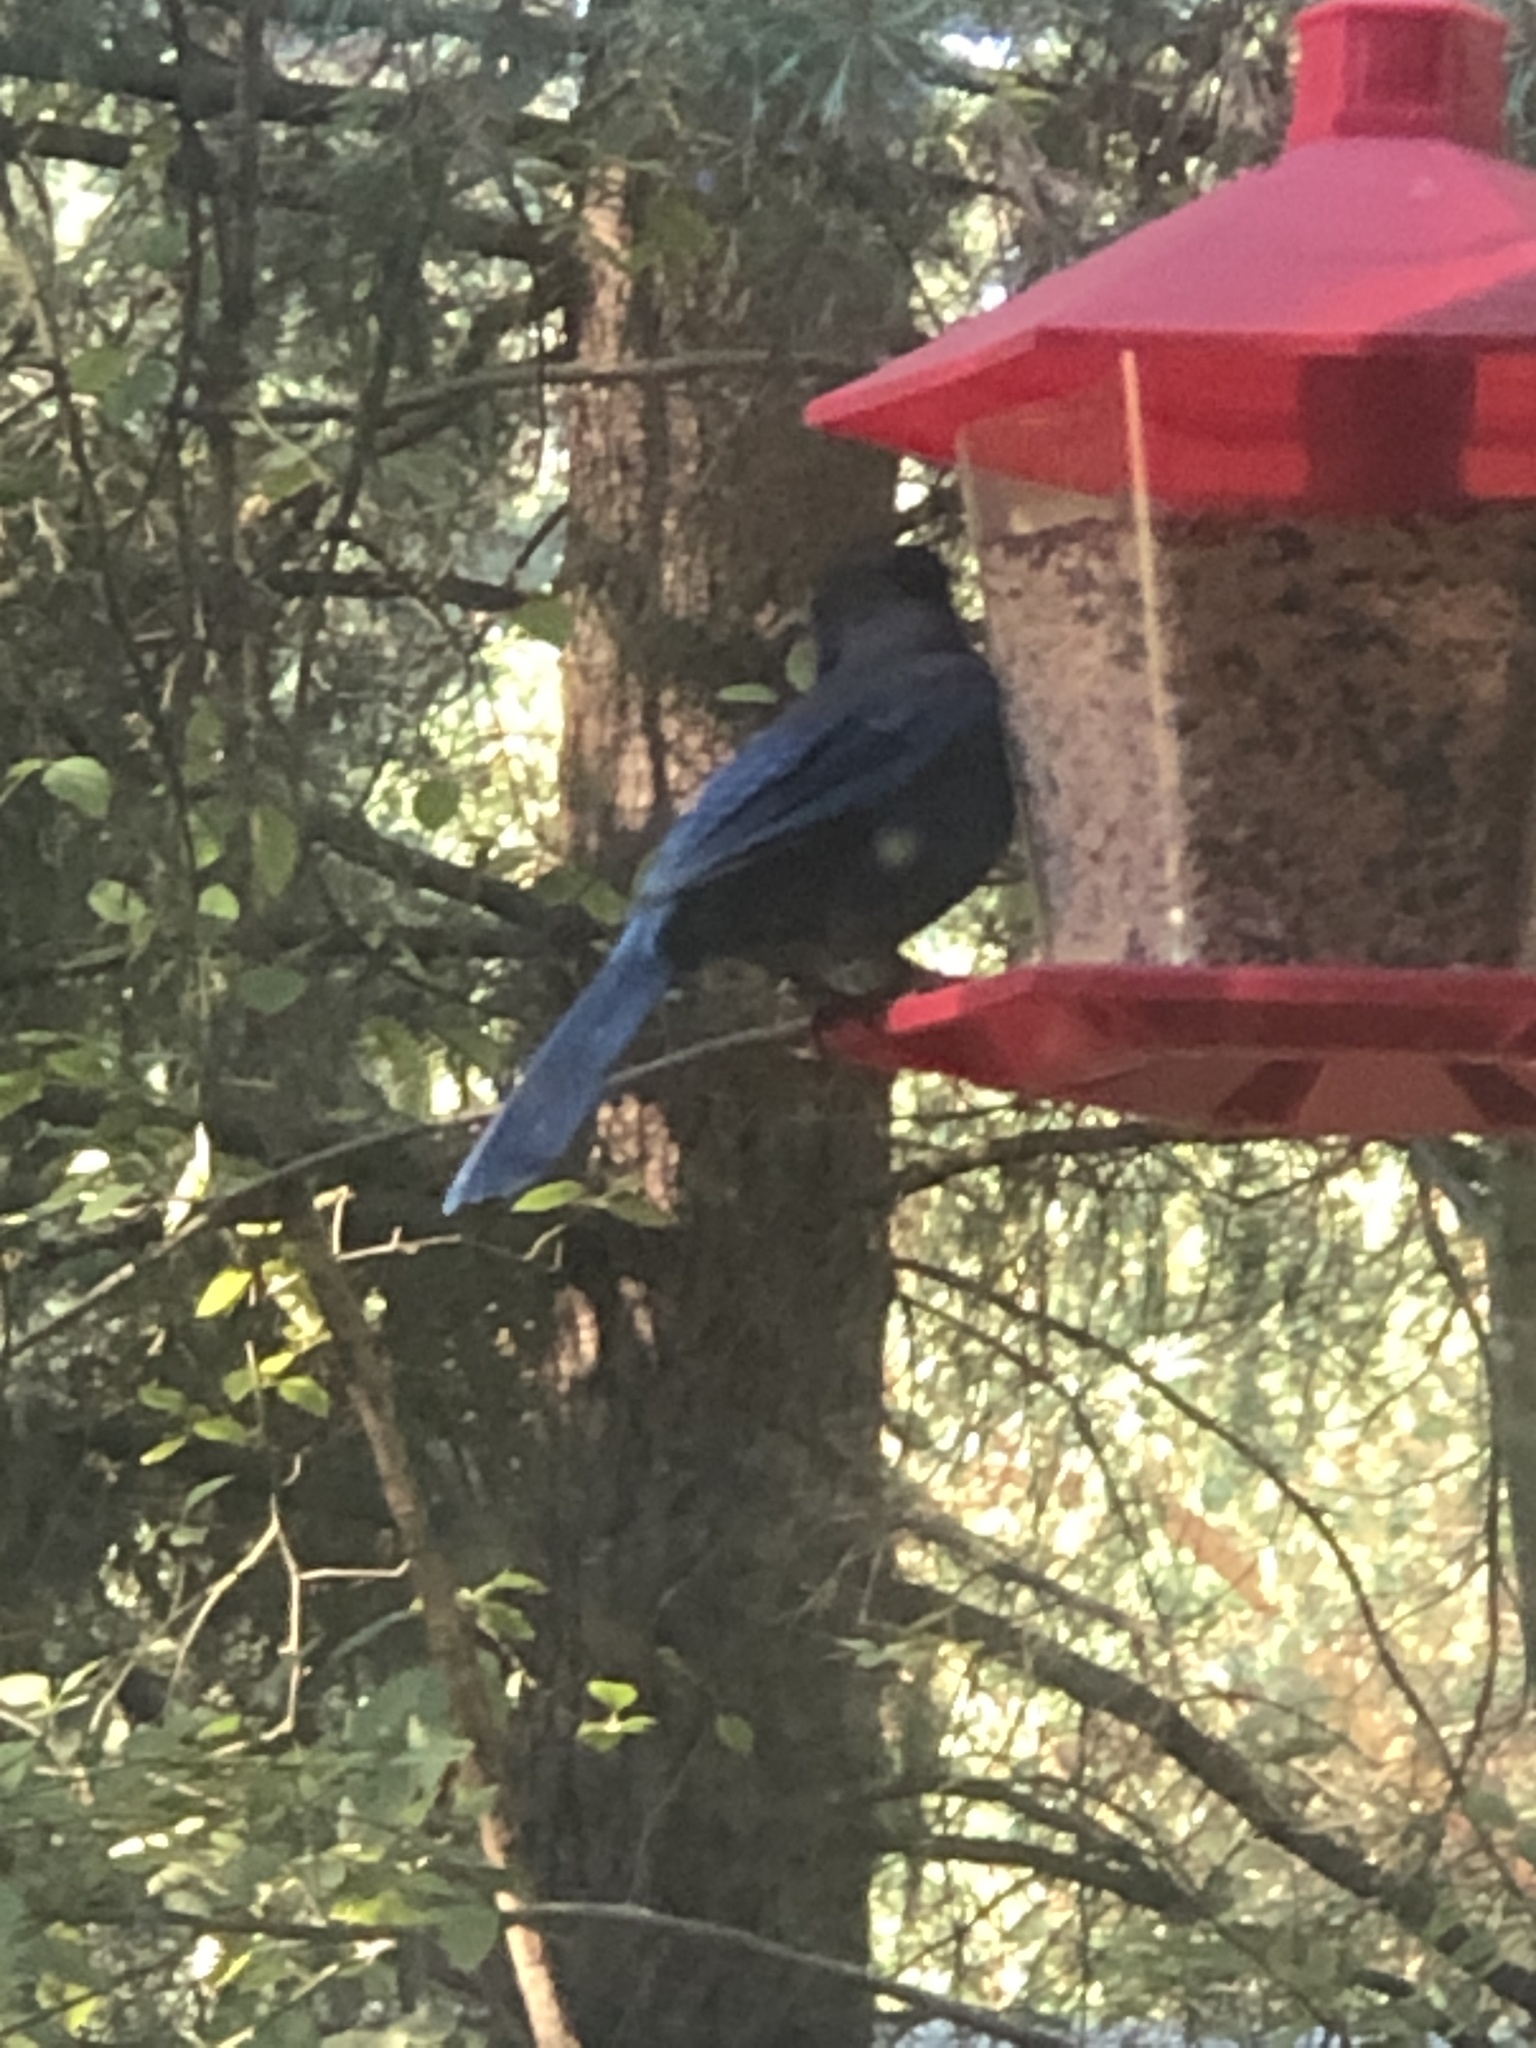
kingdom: Animalia
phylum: Chordata
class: Aves
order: Passeriformes
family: Corvidae
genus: Cyanocitta
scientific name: Cyanocitta stelleri
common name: Steller's jay
